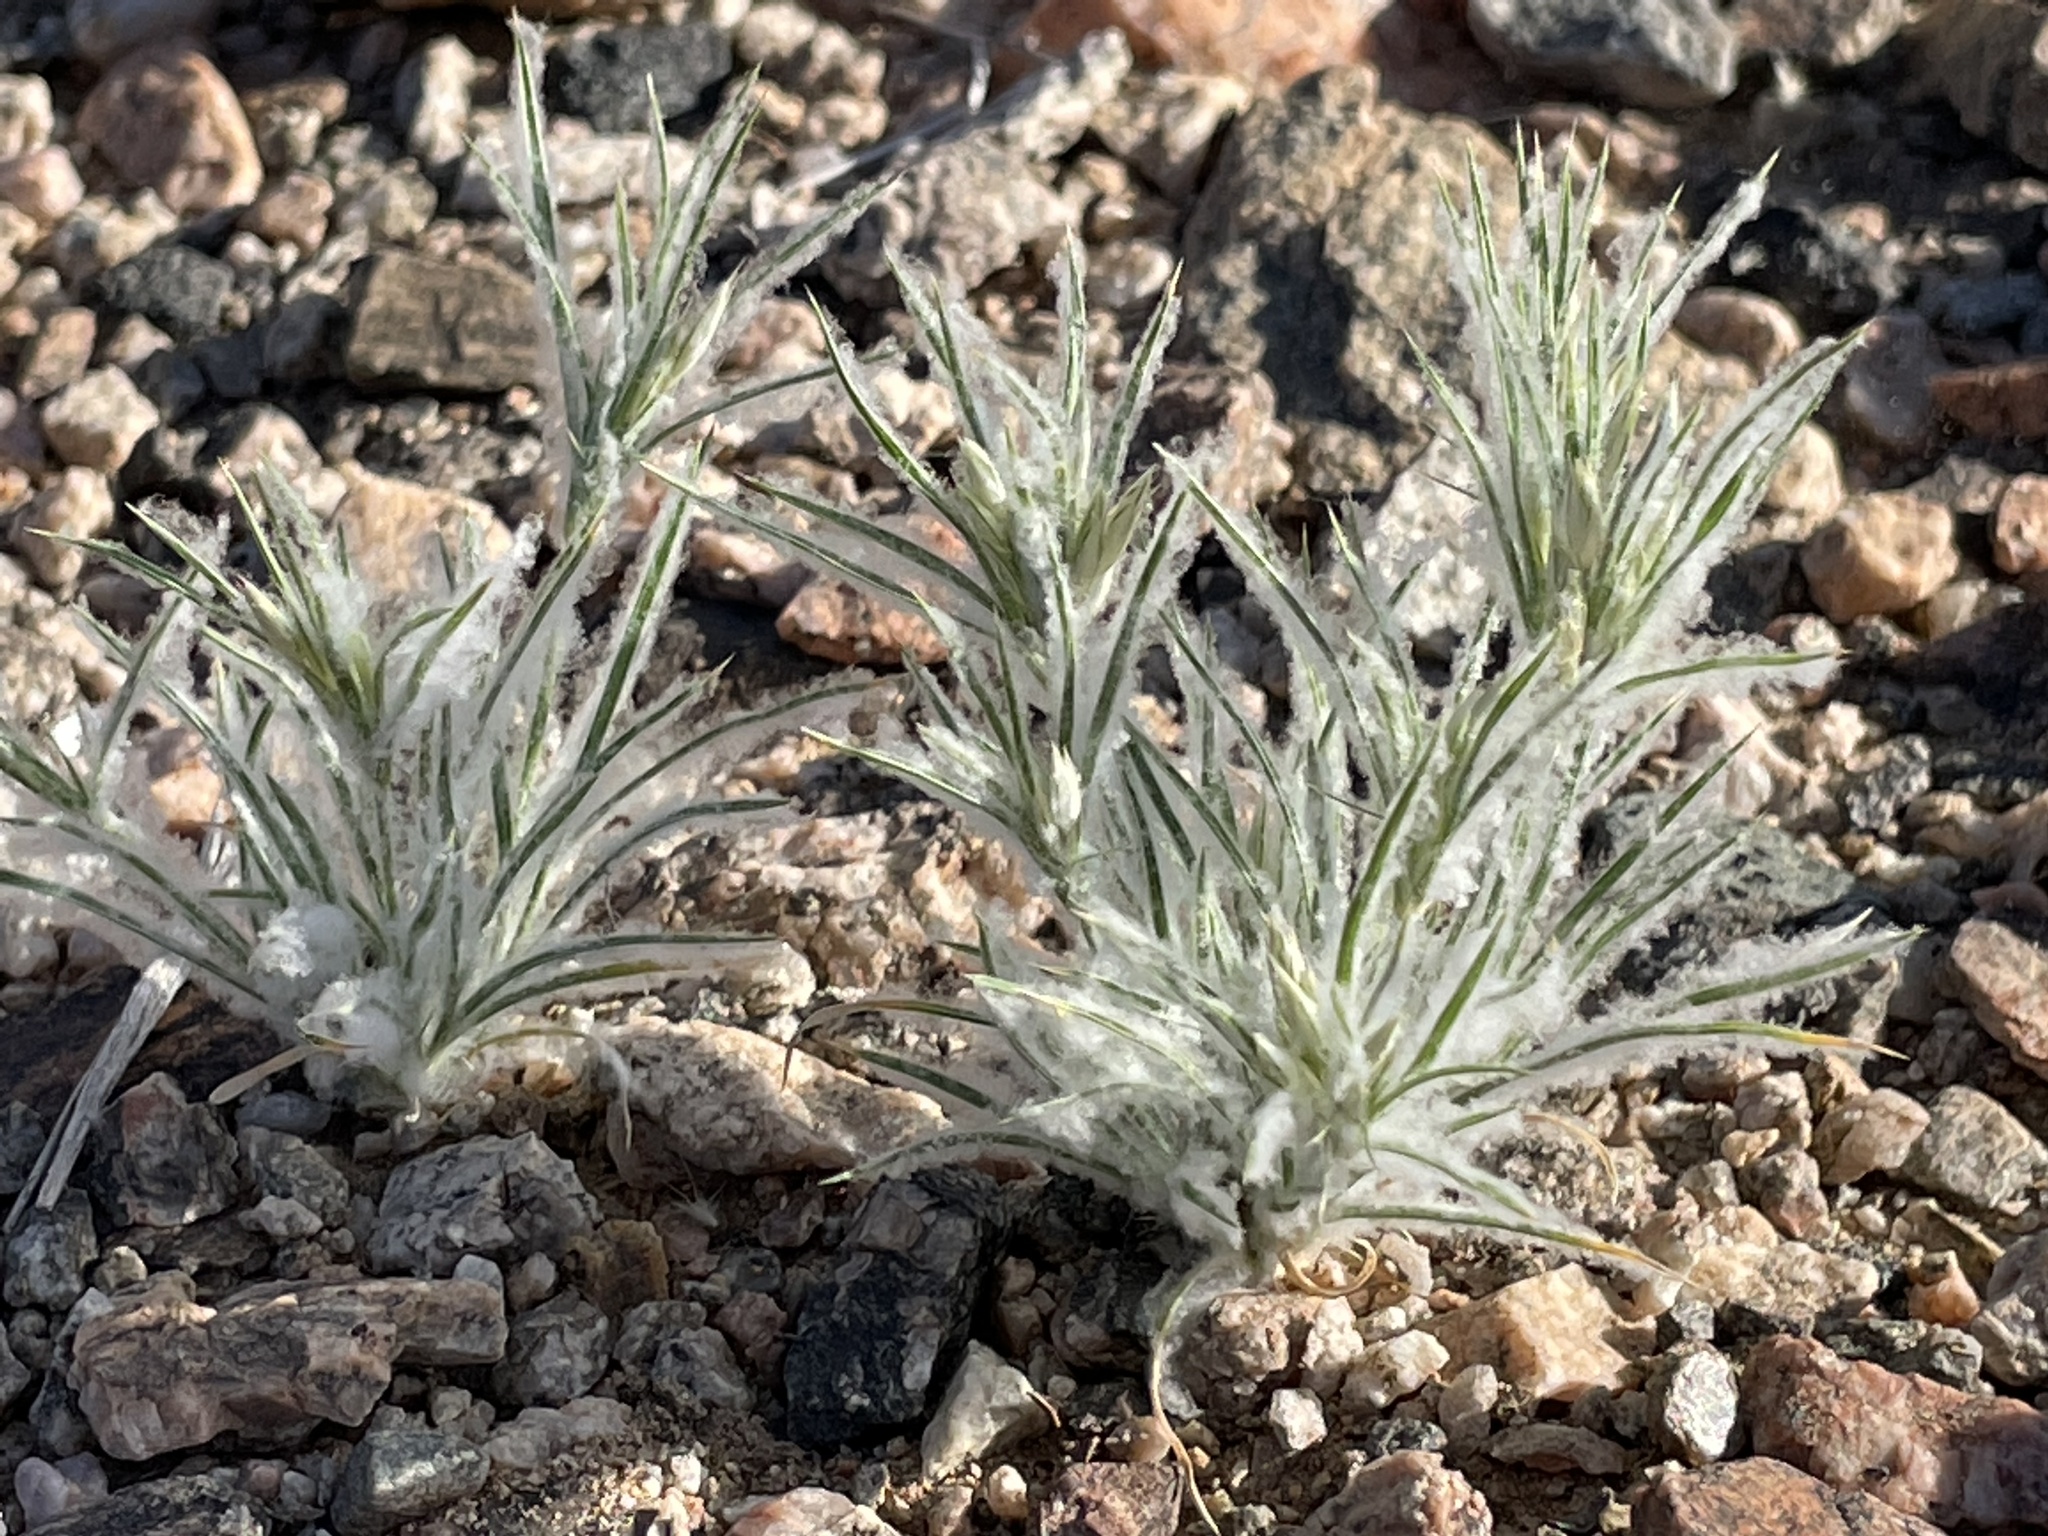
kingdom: Plantae
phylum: Tracheophyta
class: Liliopsida
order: Poales
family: Poaceae
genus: Dasyochloa
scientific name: Dasyochloa pulchella
